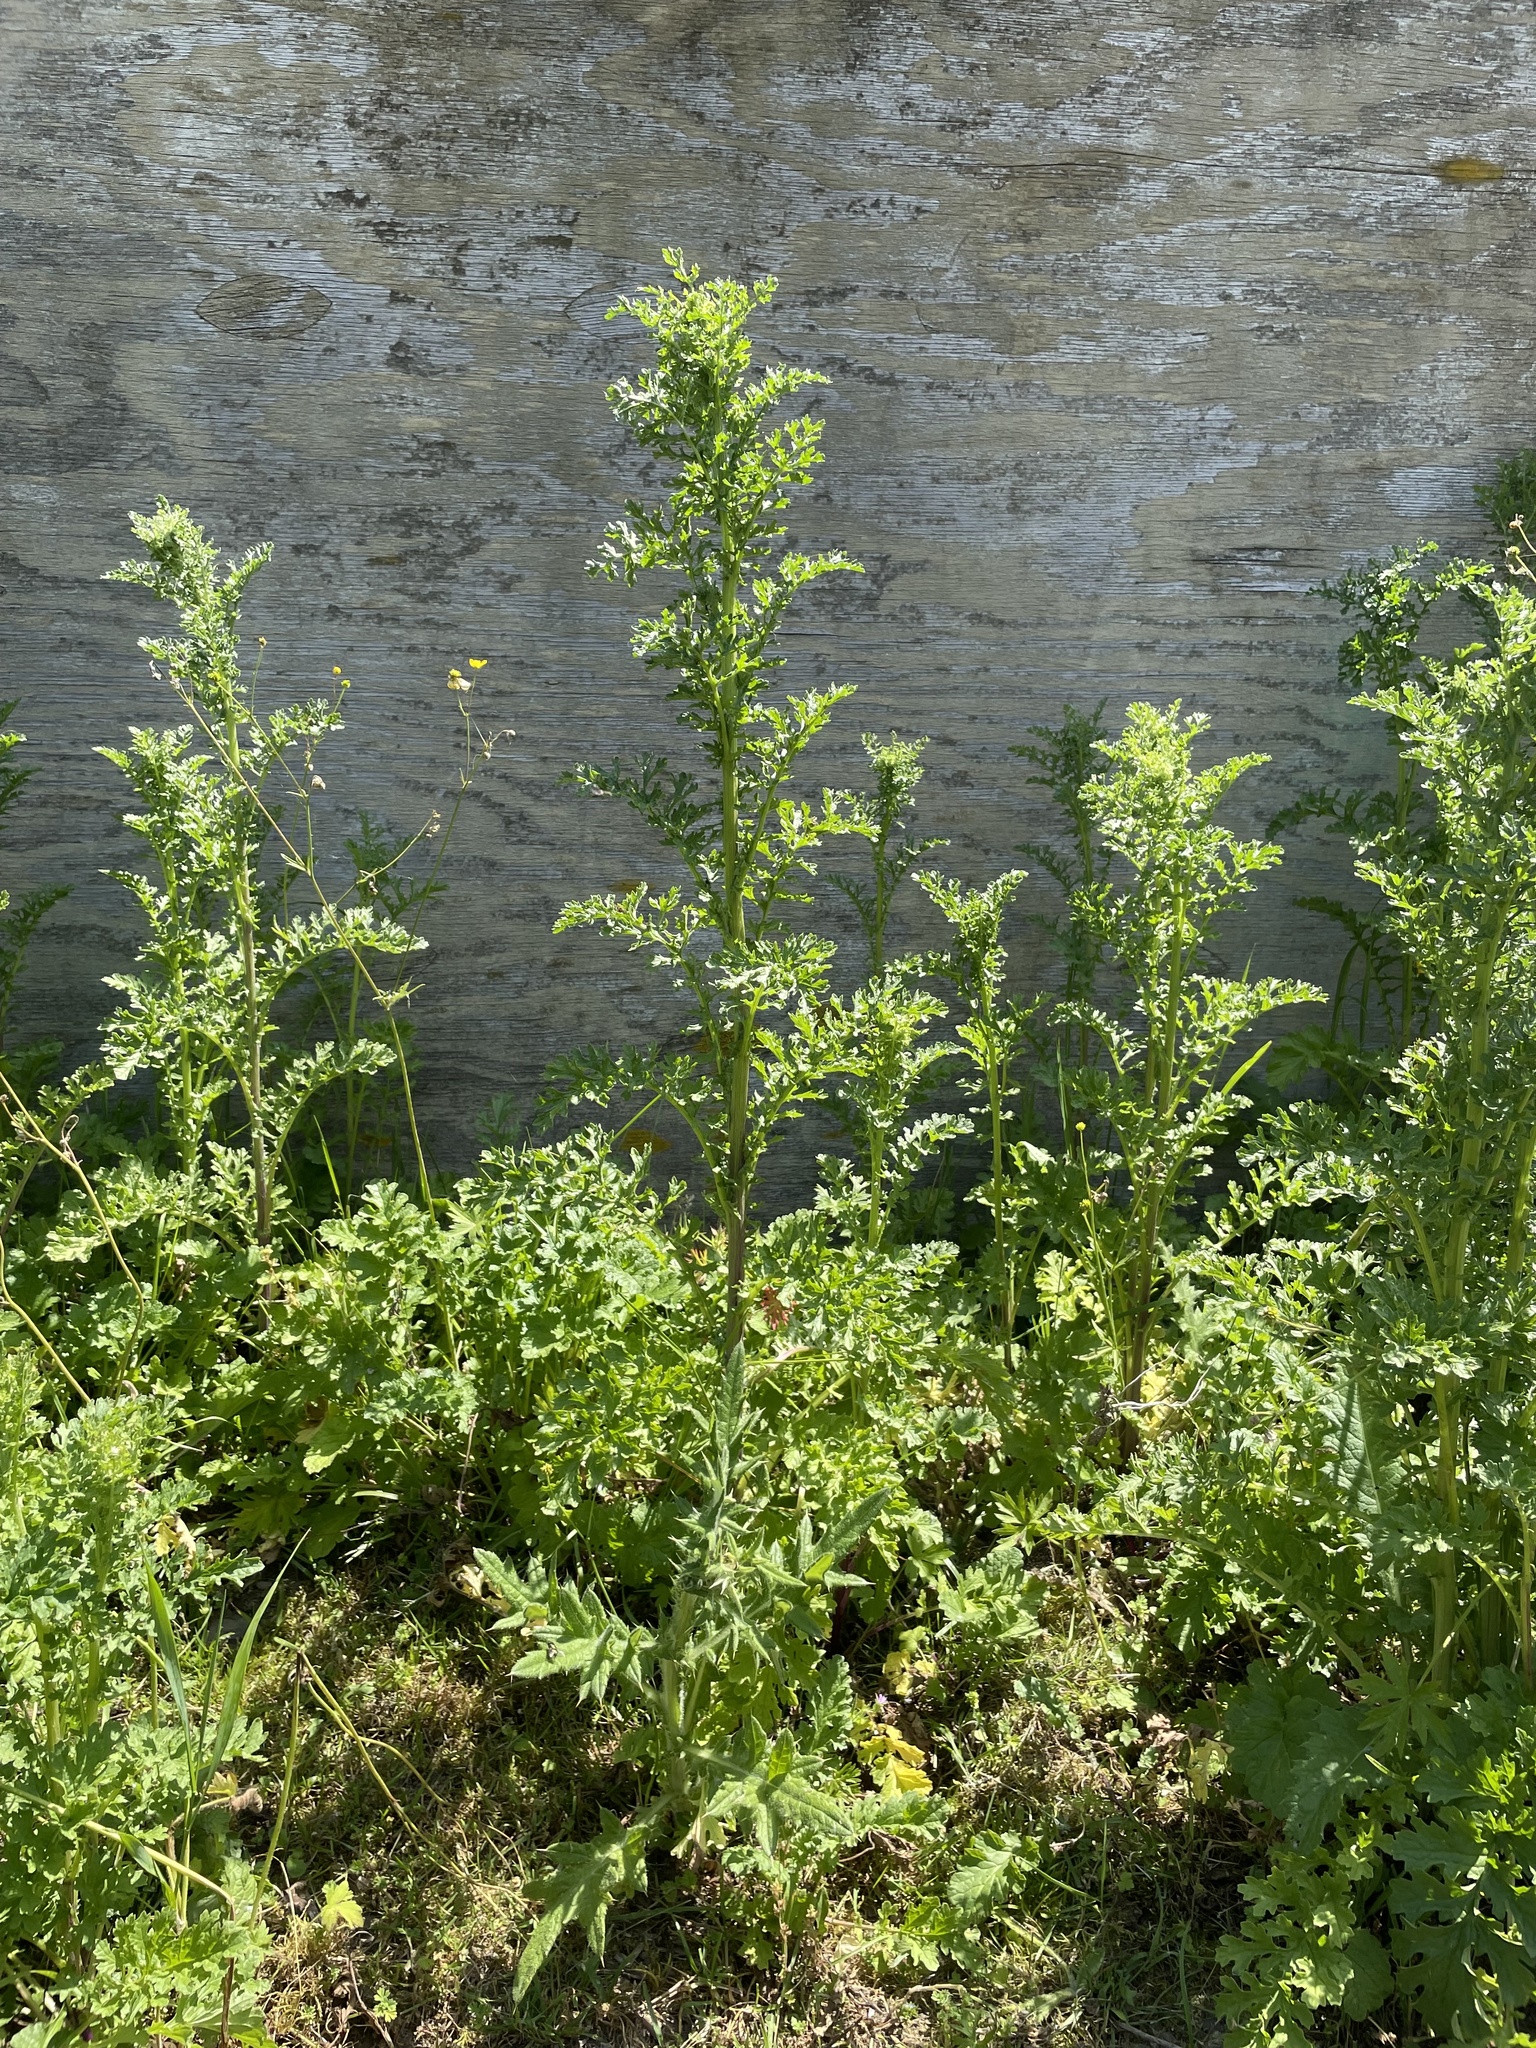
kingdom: Plantae
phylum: Tracheophyta
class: Magnoliopsida
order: Asterales
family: Asteraceae
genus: Jacobaea
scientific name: Jacobaea vulgaris
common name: Stinking willie
